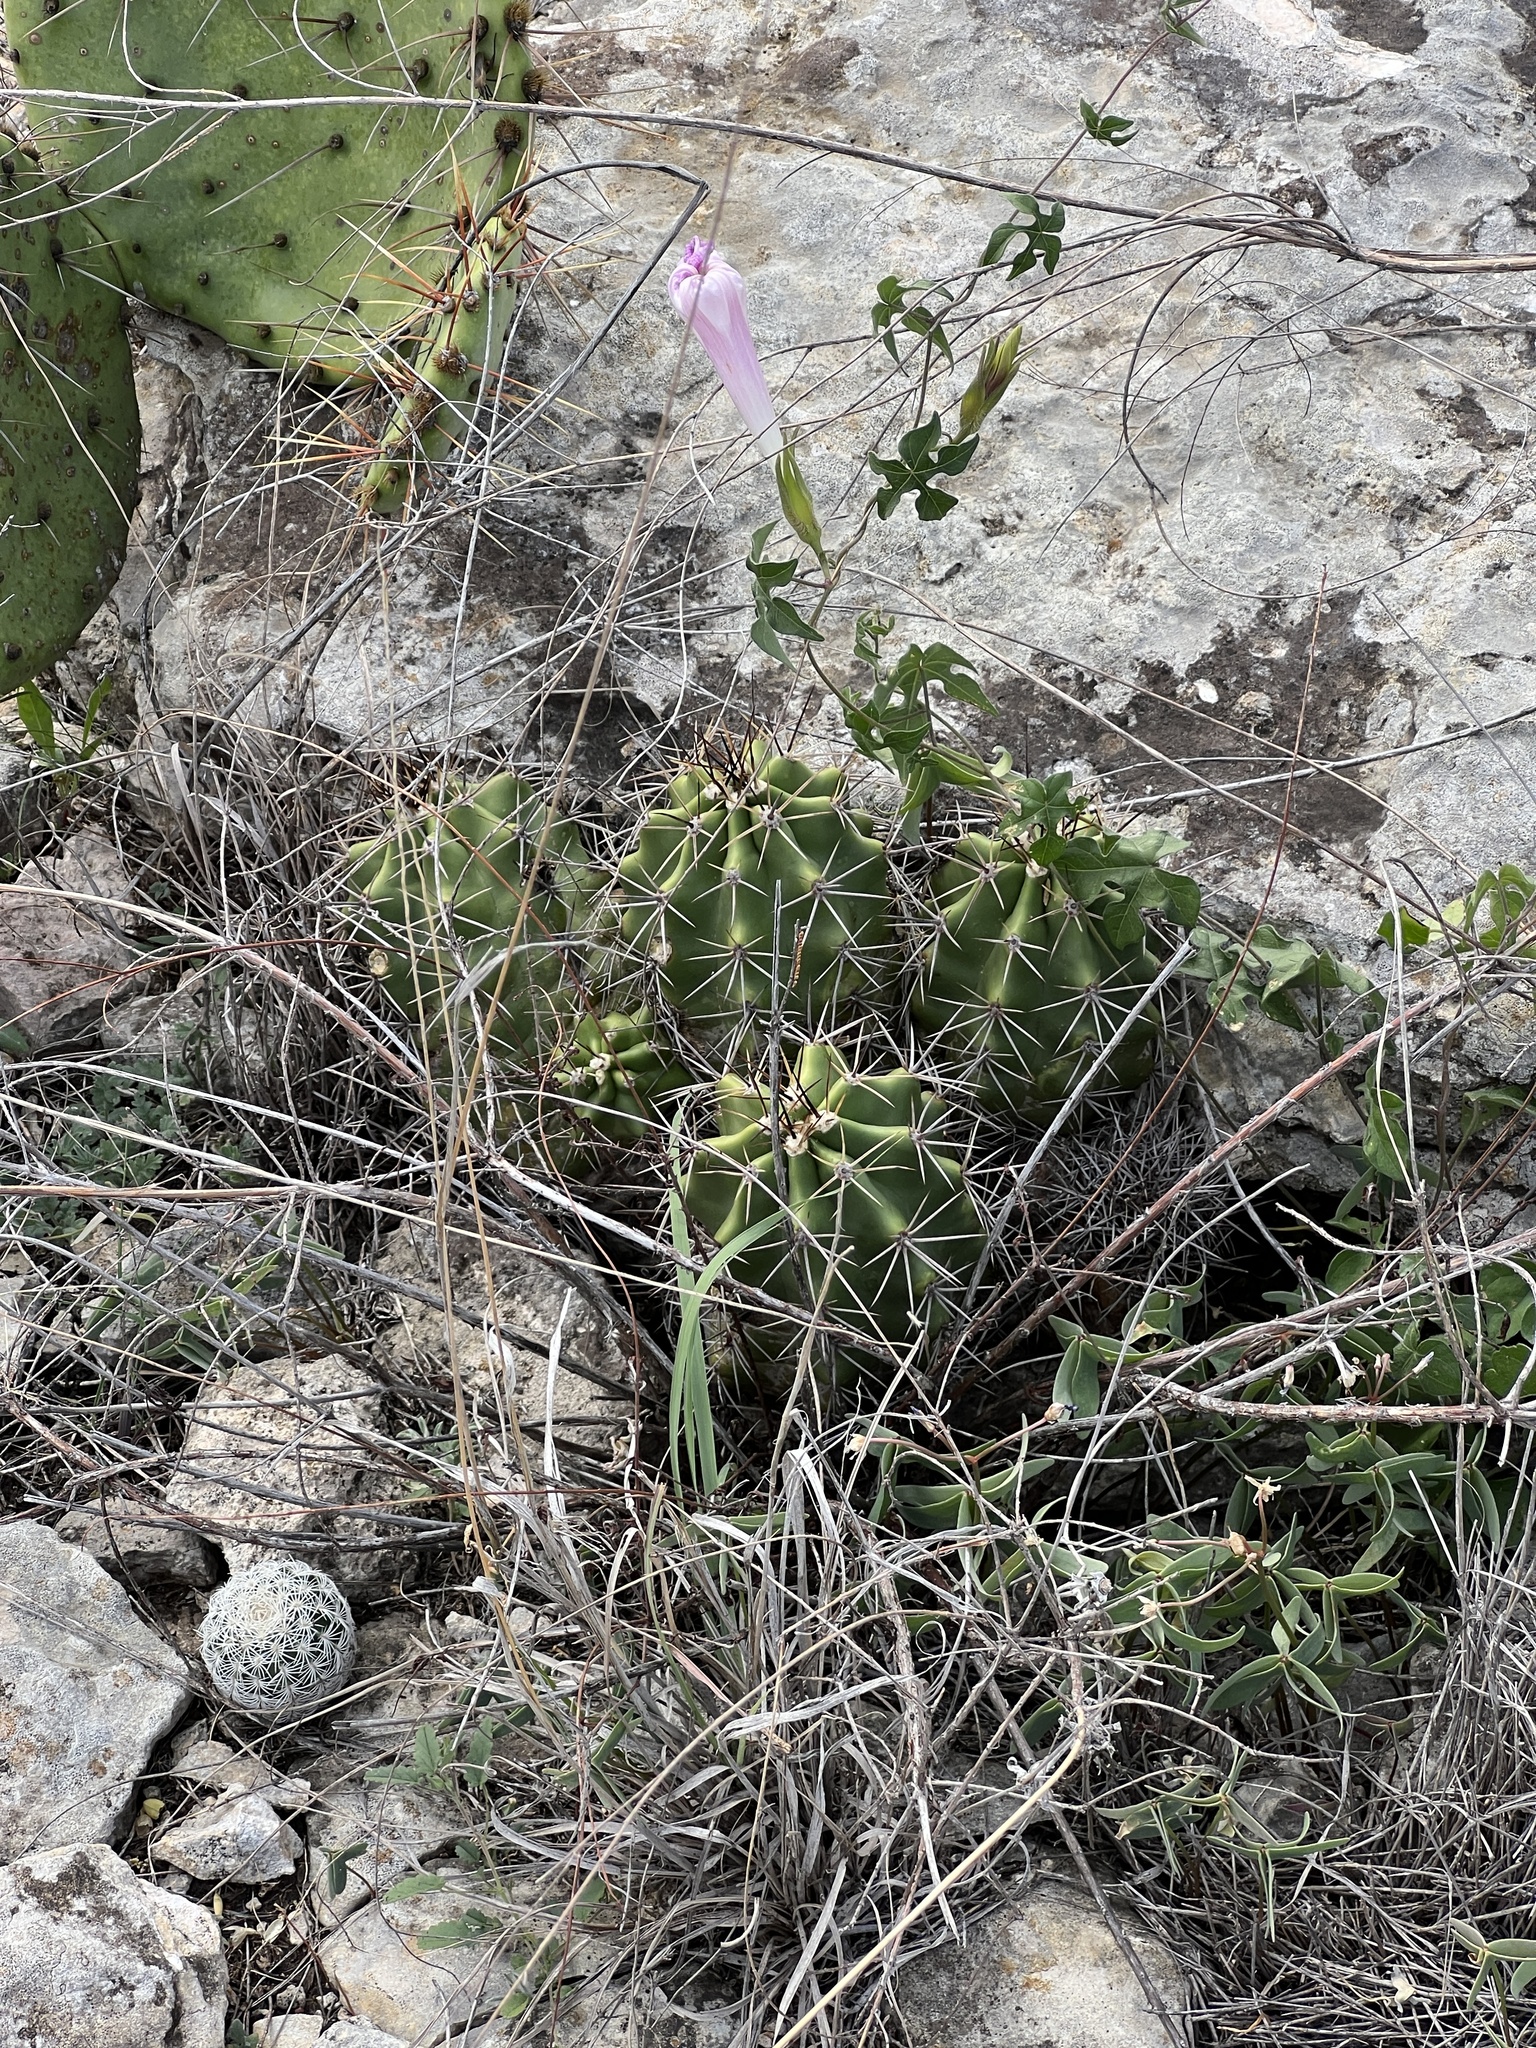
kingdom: Plantae
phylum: Tracheophyta
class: Magnoliopsida
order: Caryophyllales
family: Cactaceae
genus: Echinocereus
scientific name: Echinocereus coccineus
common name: Scarlet hedgehog cactus
